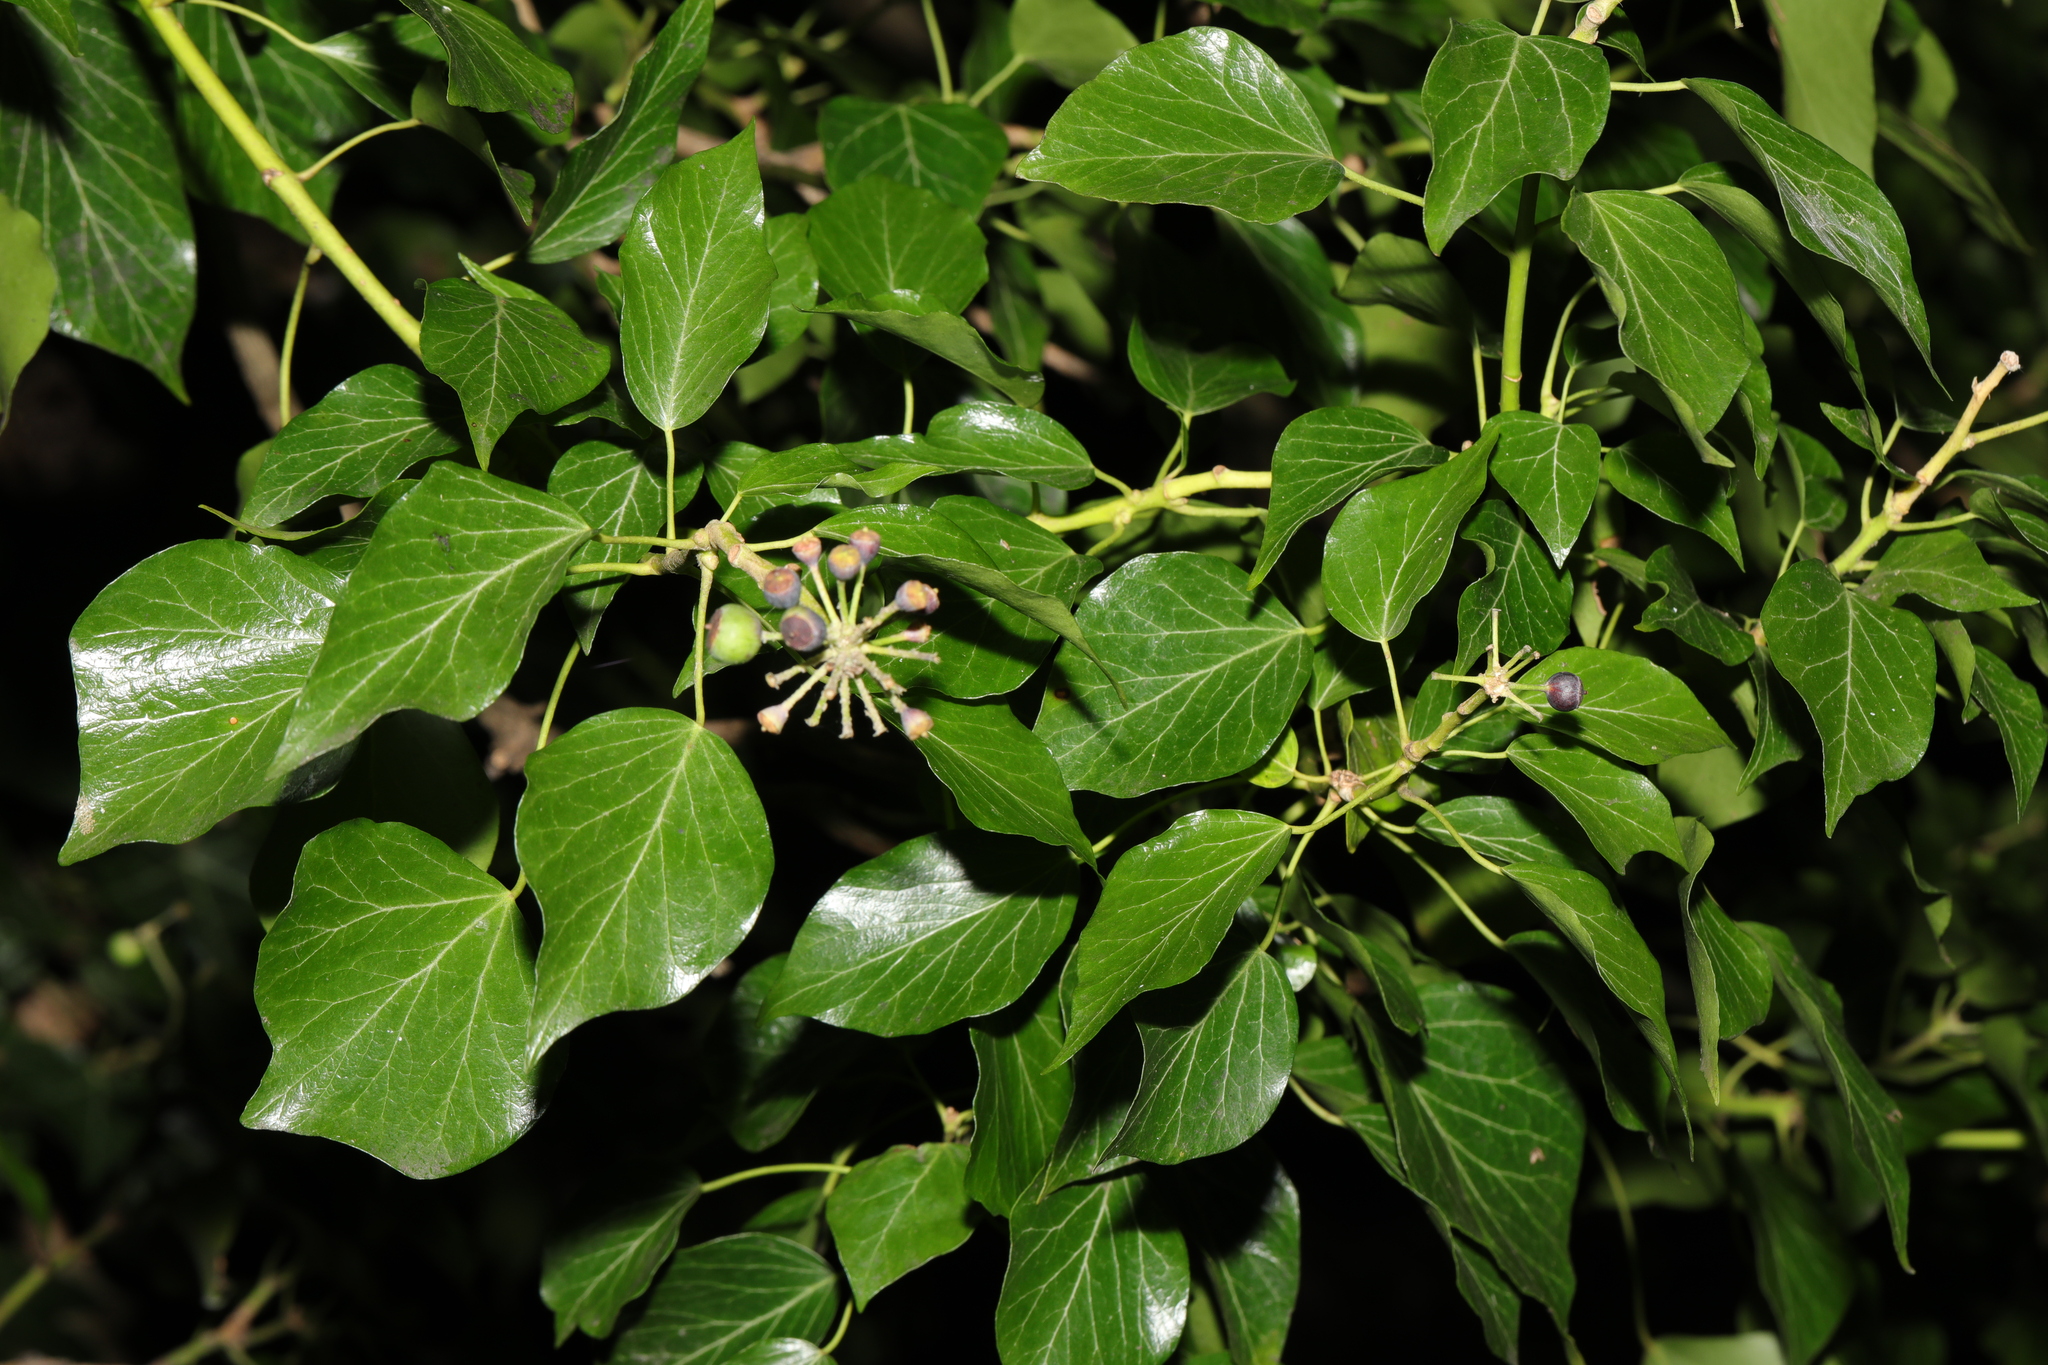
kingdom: Plantae
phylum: Tracheophyta
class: Magnoliopsida
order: Apiales
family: Araliaceae
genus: Hedera
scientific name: Hedera helix
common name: Ivy
